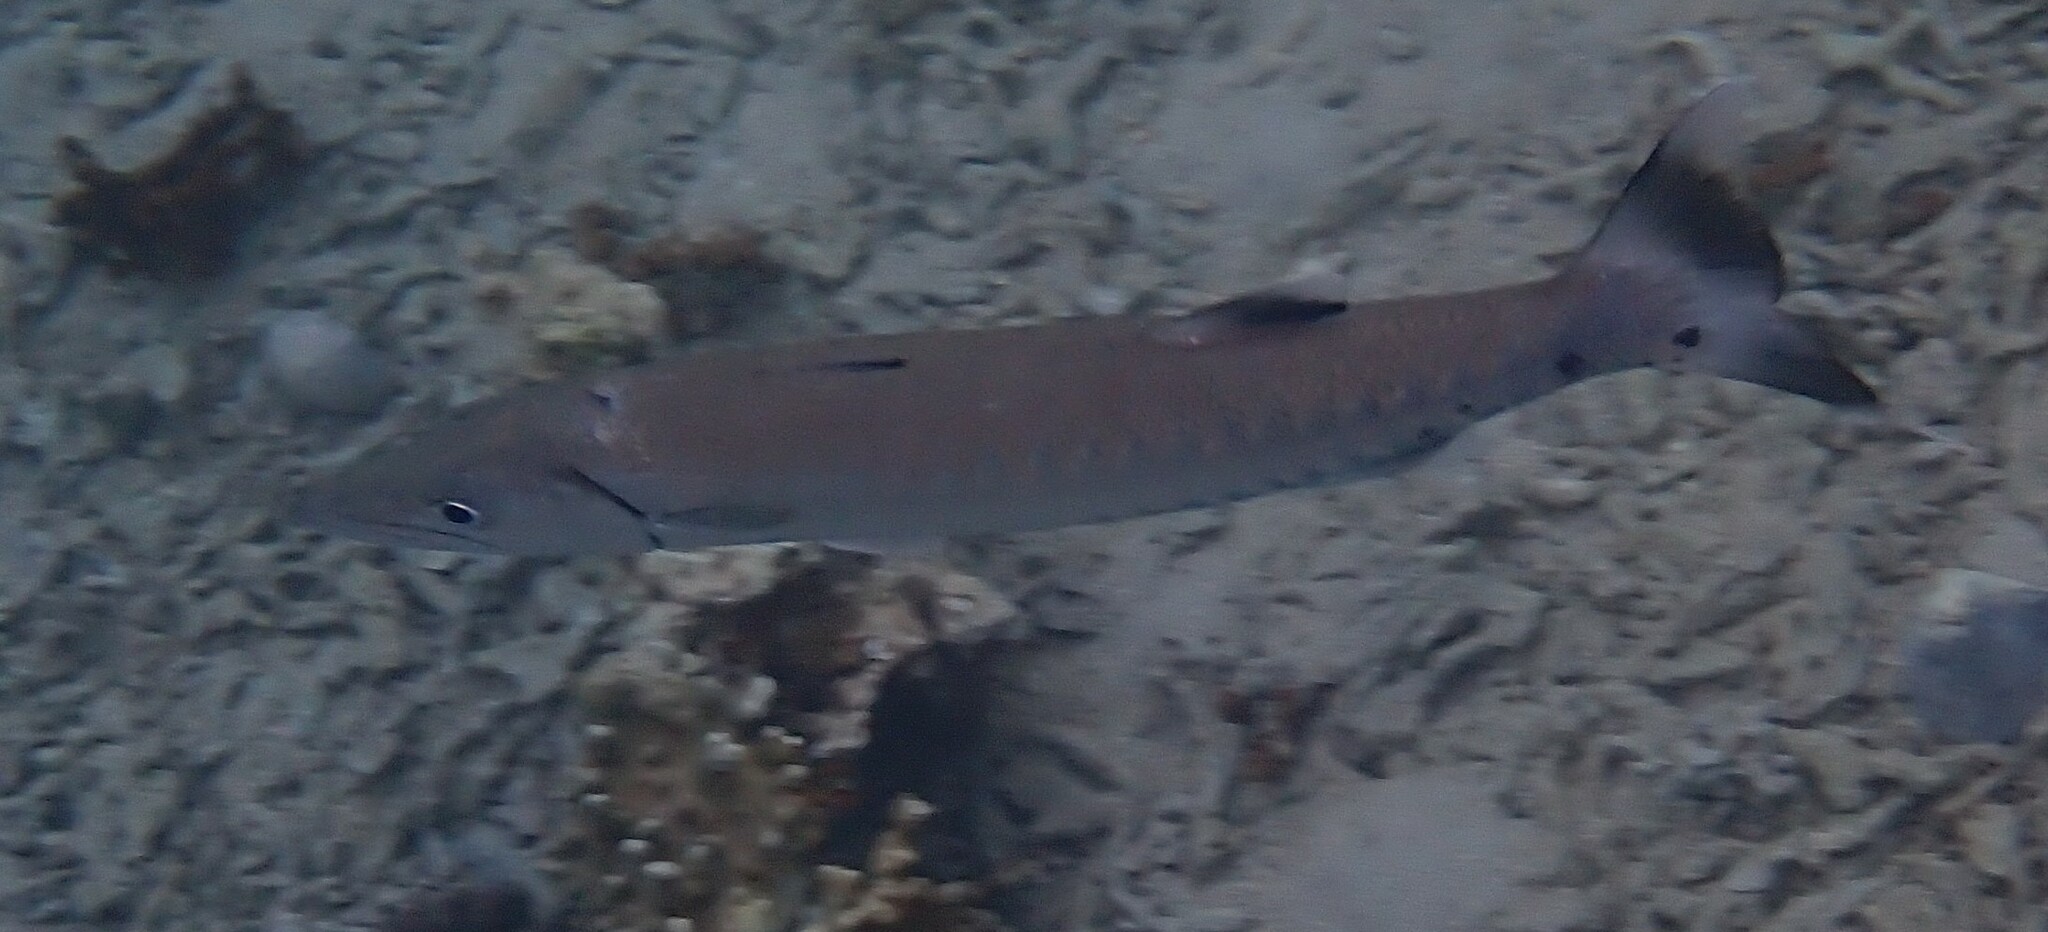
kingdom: Animalia
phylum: Chordata
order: Perciformes
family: Sphyraenidae
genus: Sphyraena
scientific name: Sphyraena barracuda
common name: Great barracuda
